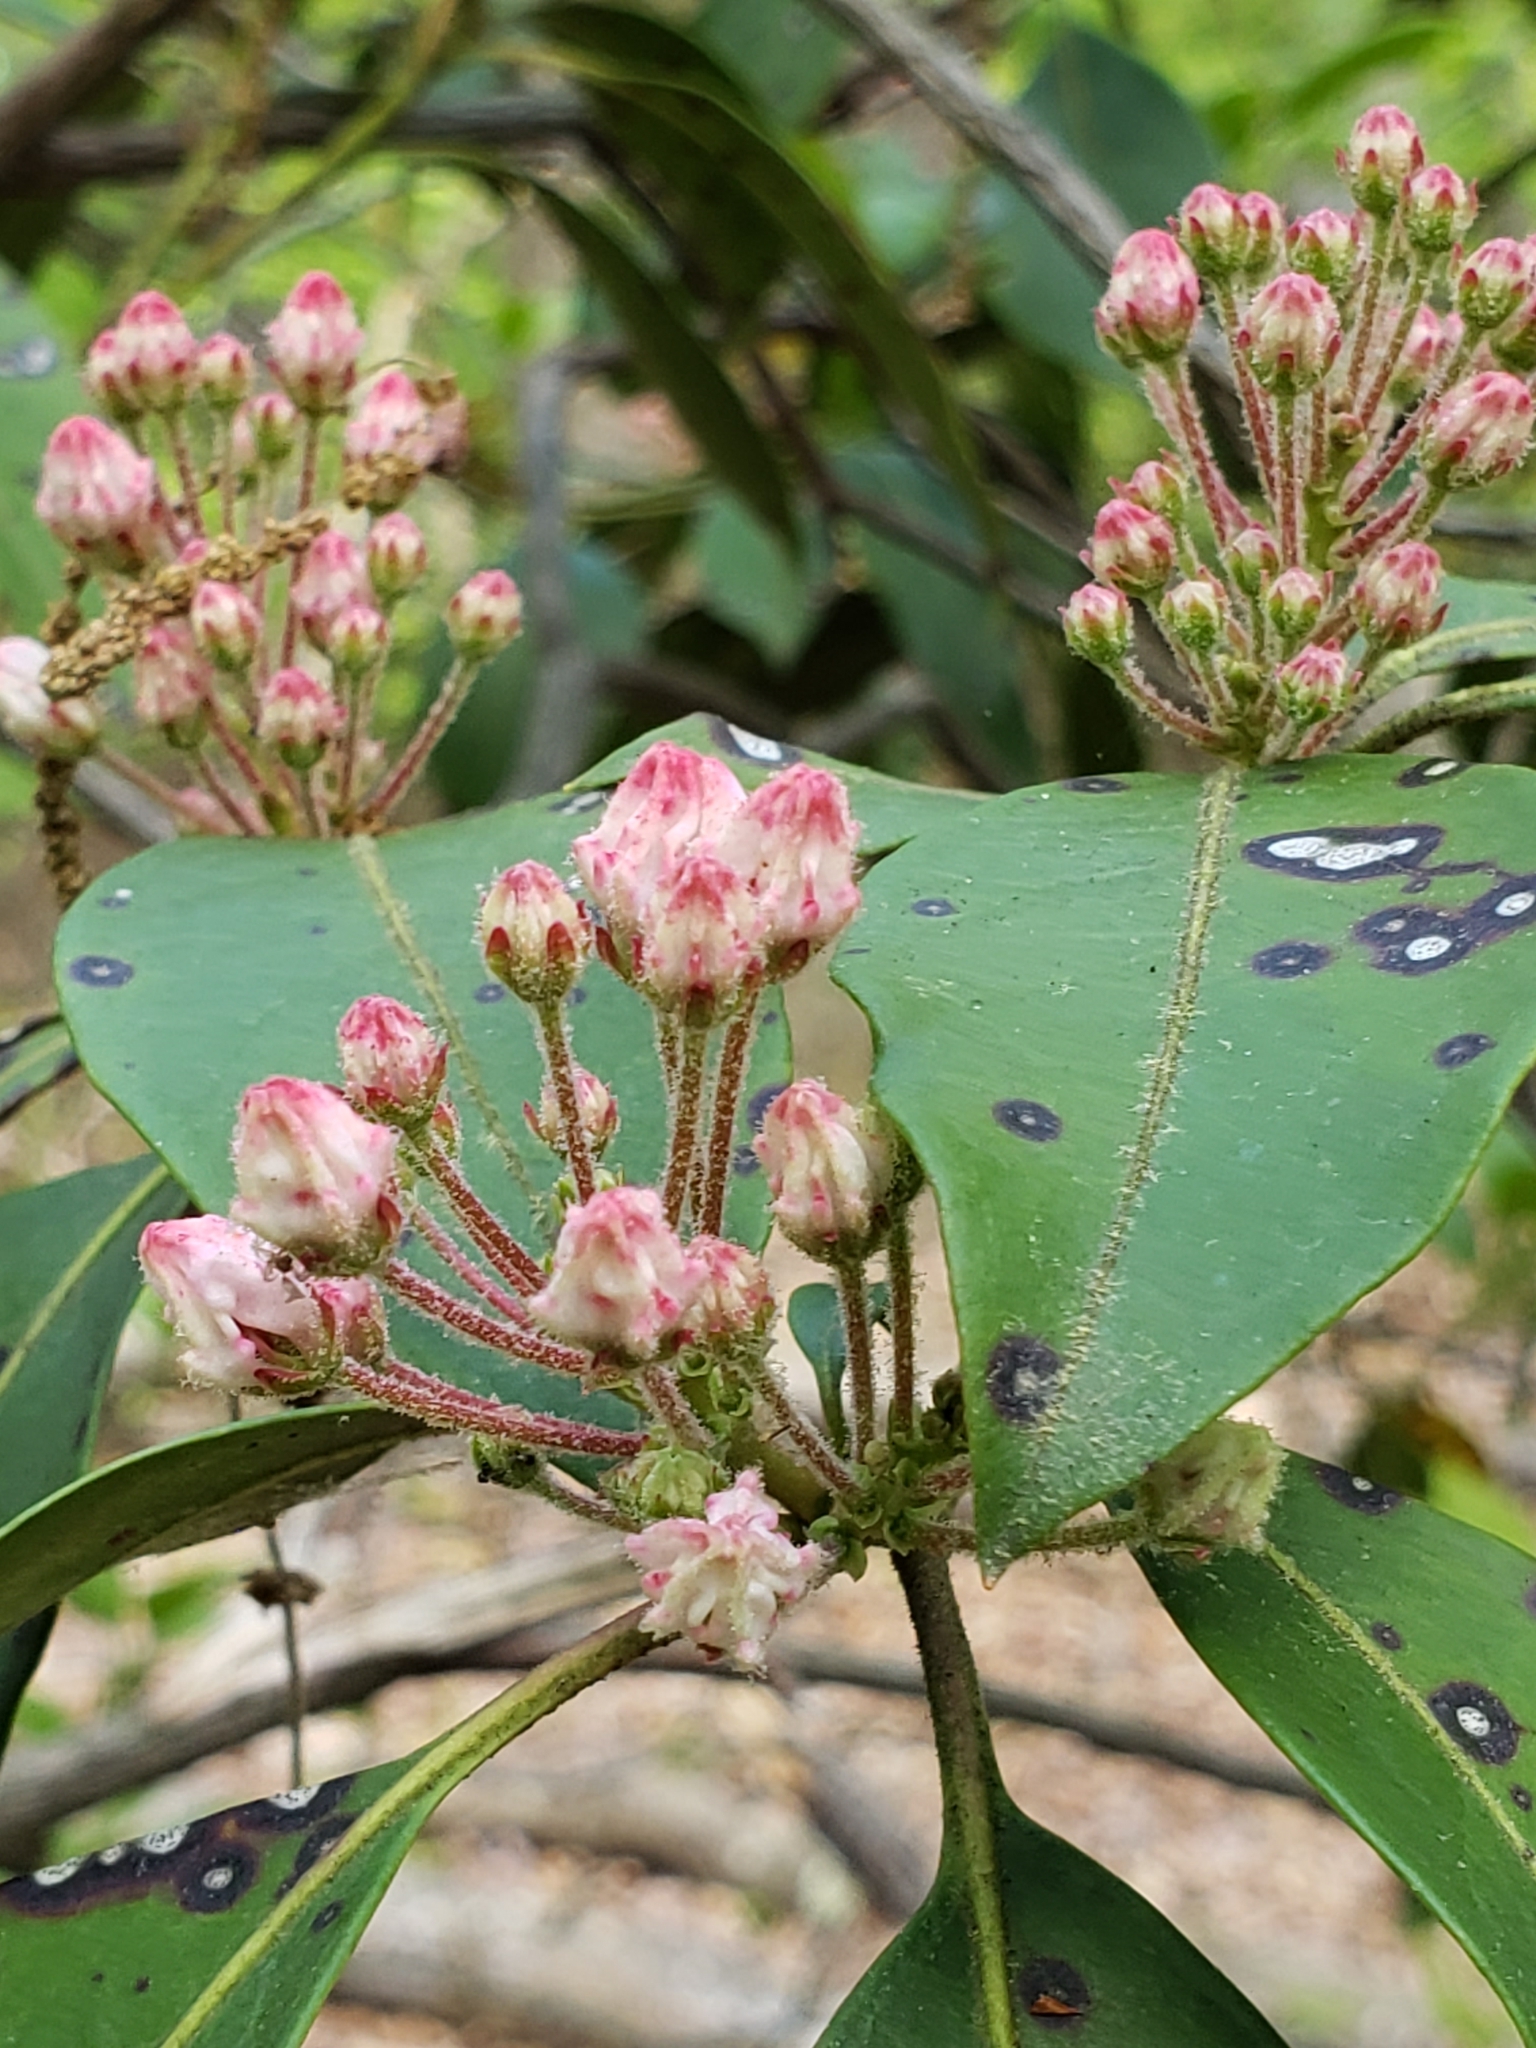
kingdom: Plantae
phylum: Tracheophyta
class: Magnoliopsida
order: Ericales
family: Ericaceae
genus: Kalmia
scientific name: Kalmia latifolia
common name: Mountain-laurel
